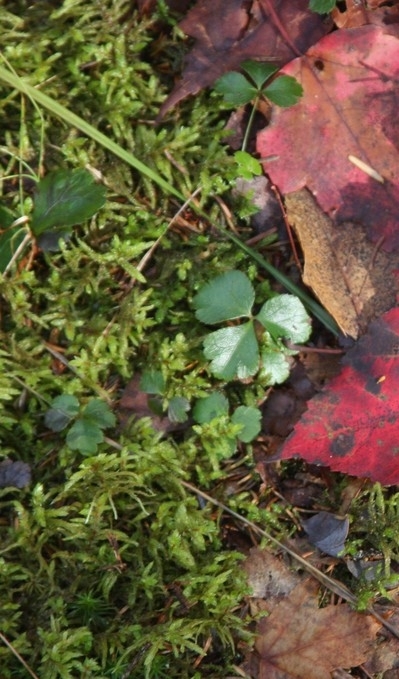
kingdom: Plantae
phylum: Tracheophyta
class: Magnoliopsida
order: Ranunculales
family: Ranunculaceae
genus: Coptis
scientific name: Coptis trifolia
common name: Canker-root
